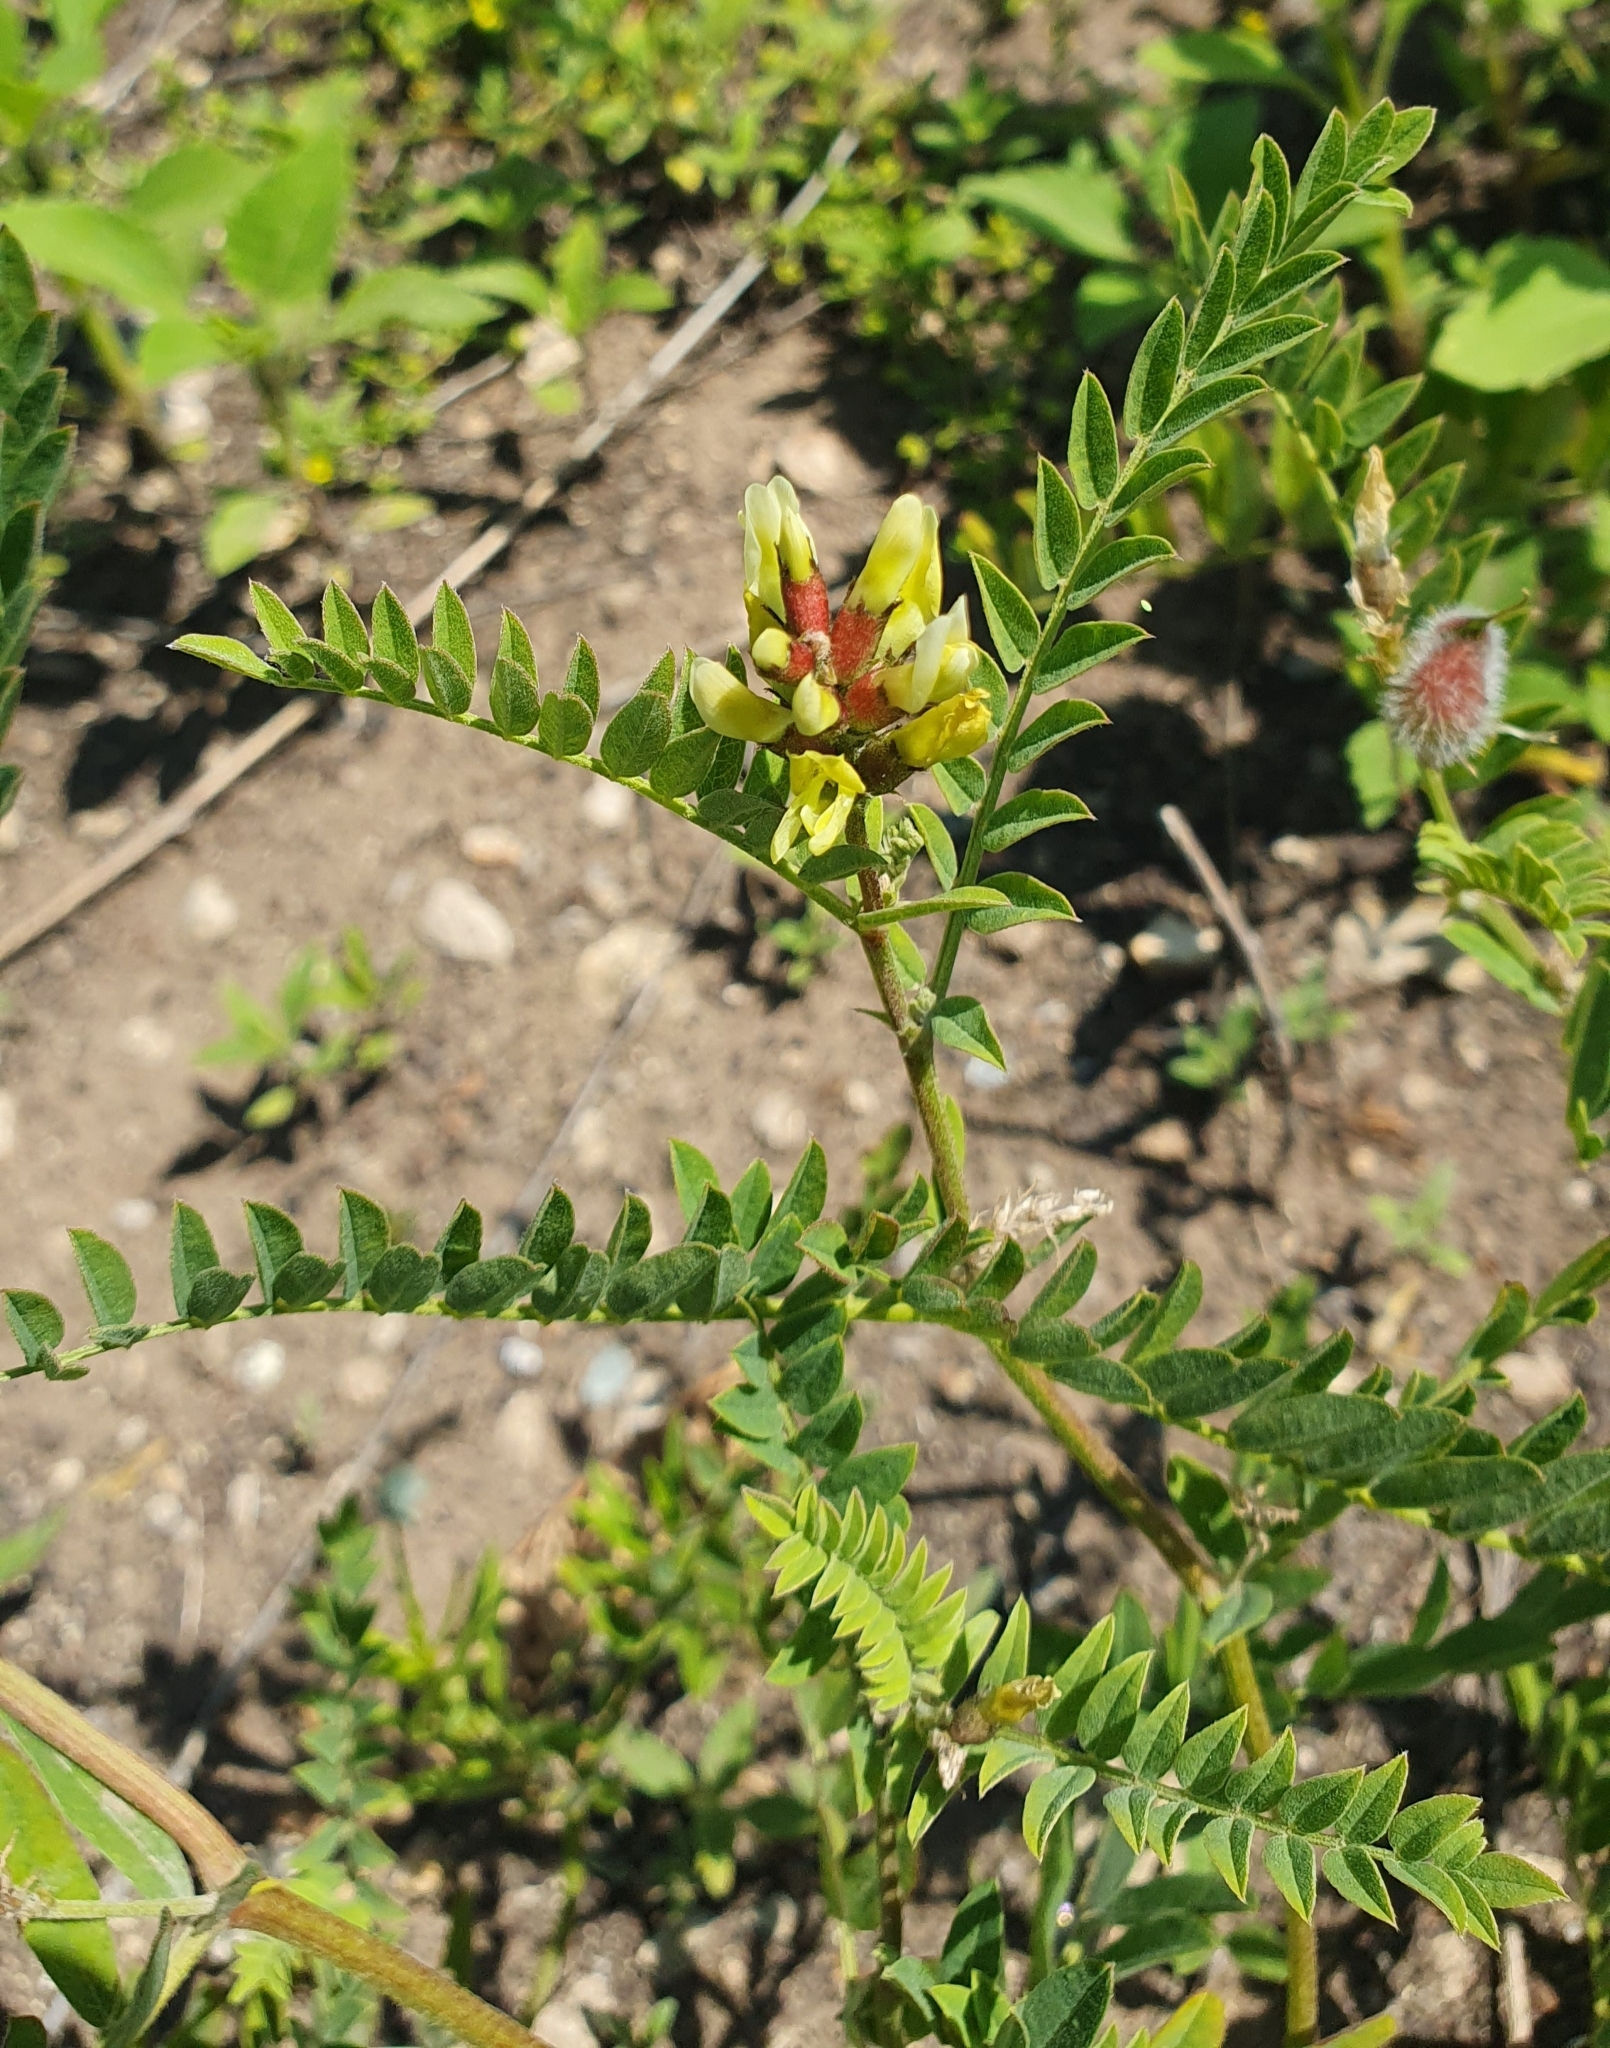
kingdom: Plantae
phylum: Tracheophyta
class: Magnoliopsida
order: Fabales
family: Fabaceae
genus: Astragalus
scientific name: Astragalus cicer
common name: Chick-pea milk-vetch
